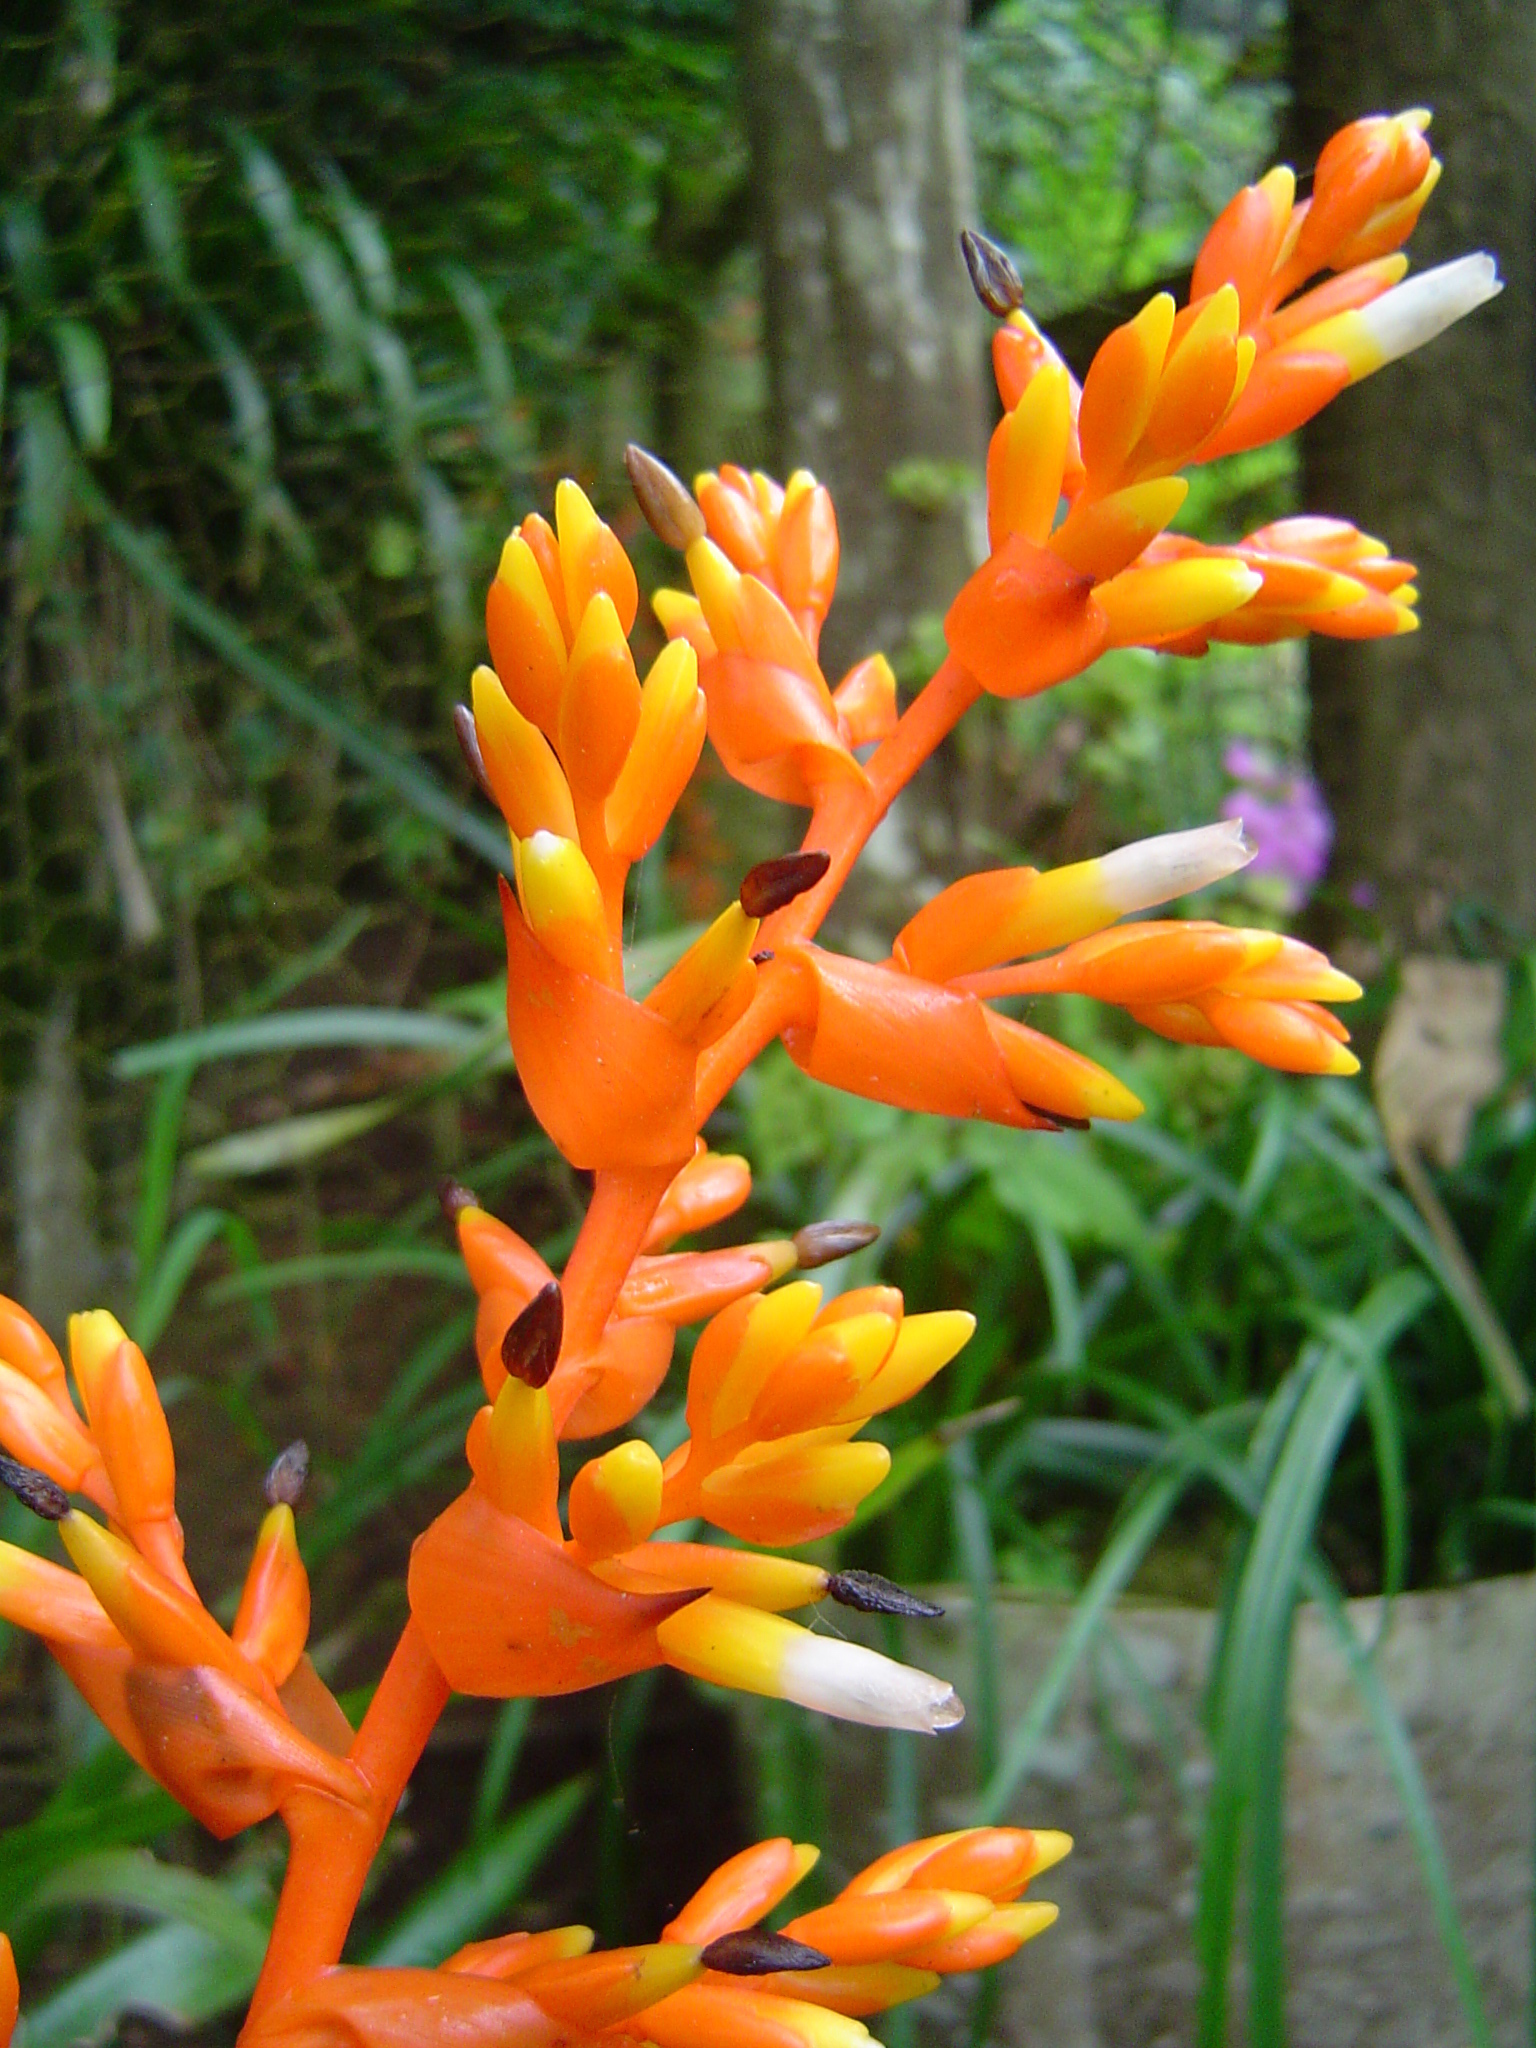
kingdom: Plantae
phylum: Tracheophyta
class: Liliopsida
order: Poales
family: Bromeliaceae
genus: Guzmania
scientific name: Guzmania multiflora
